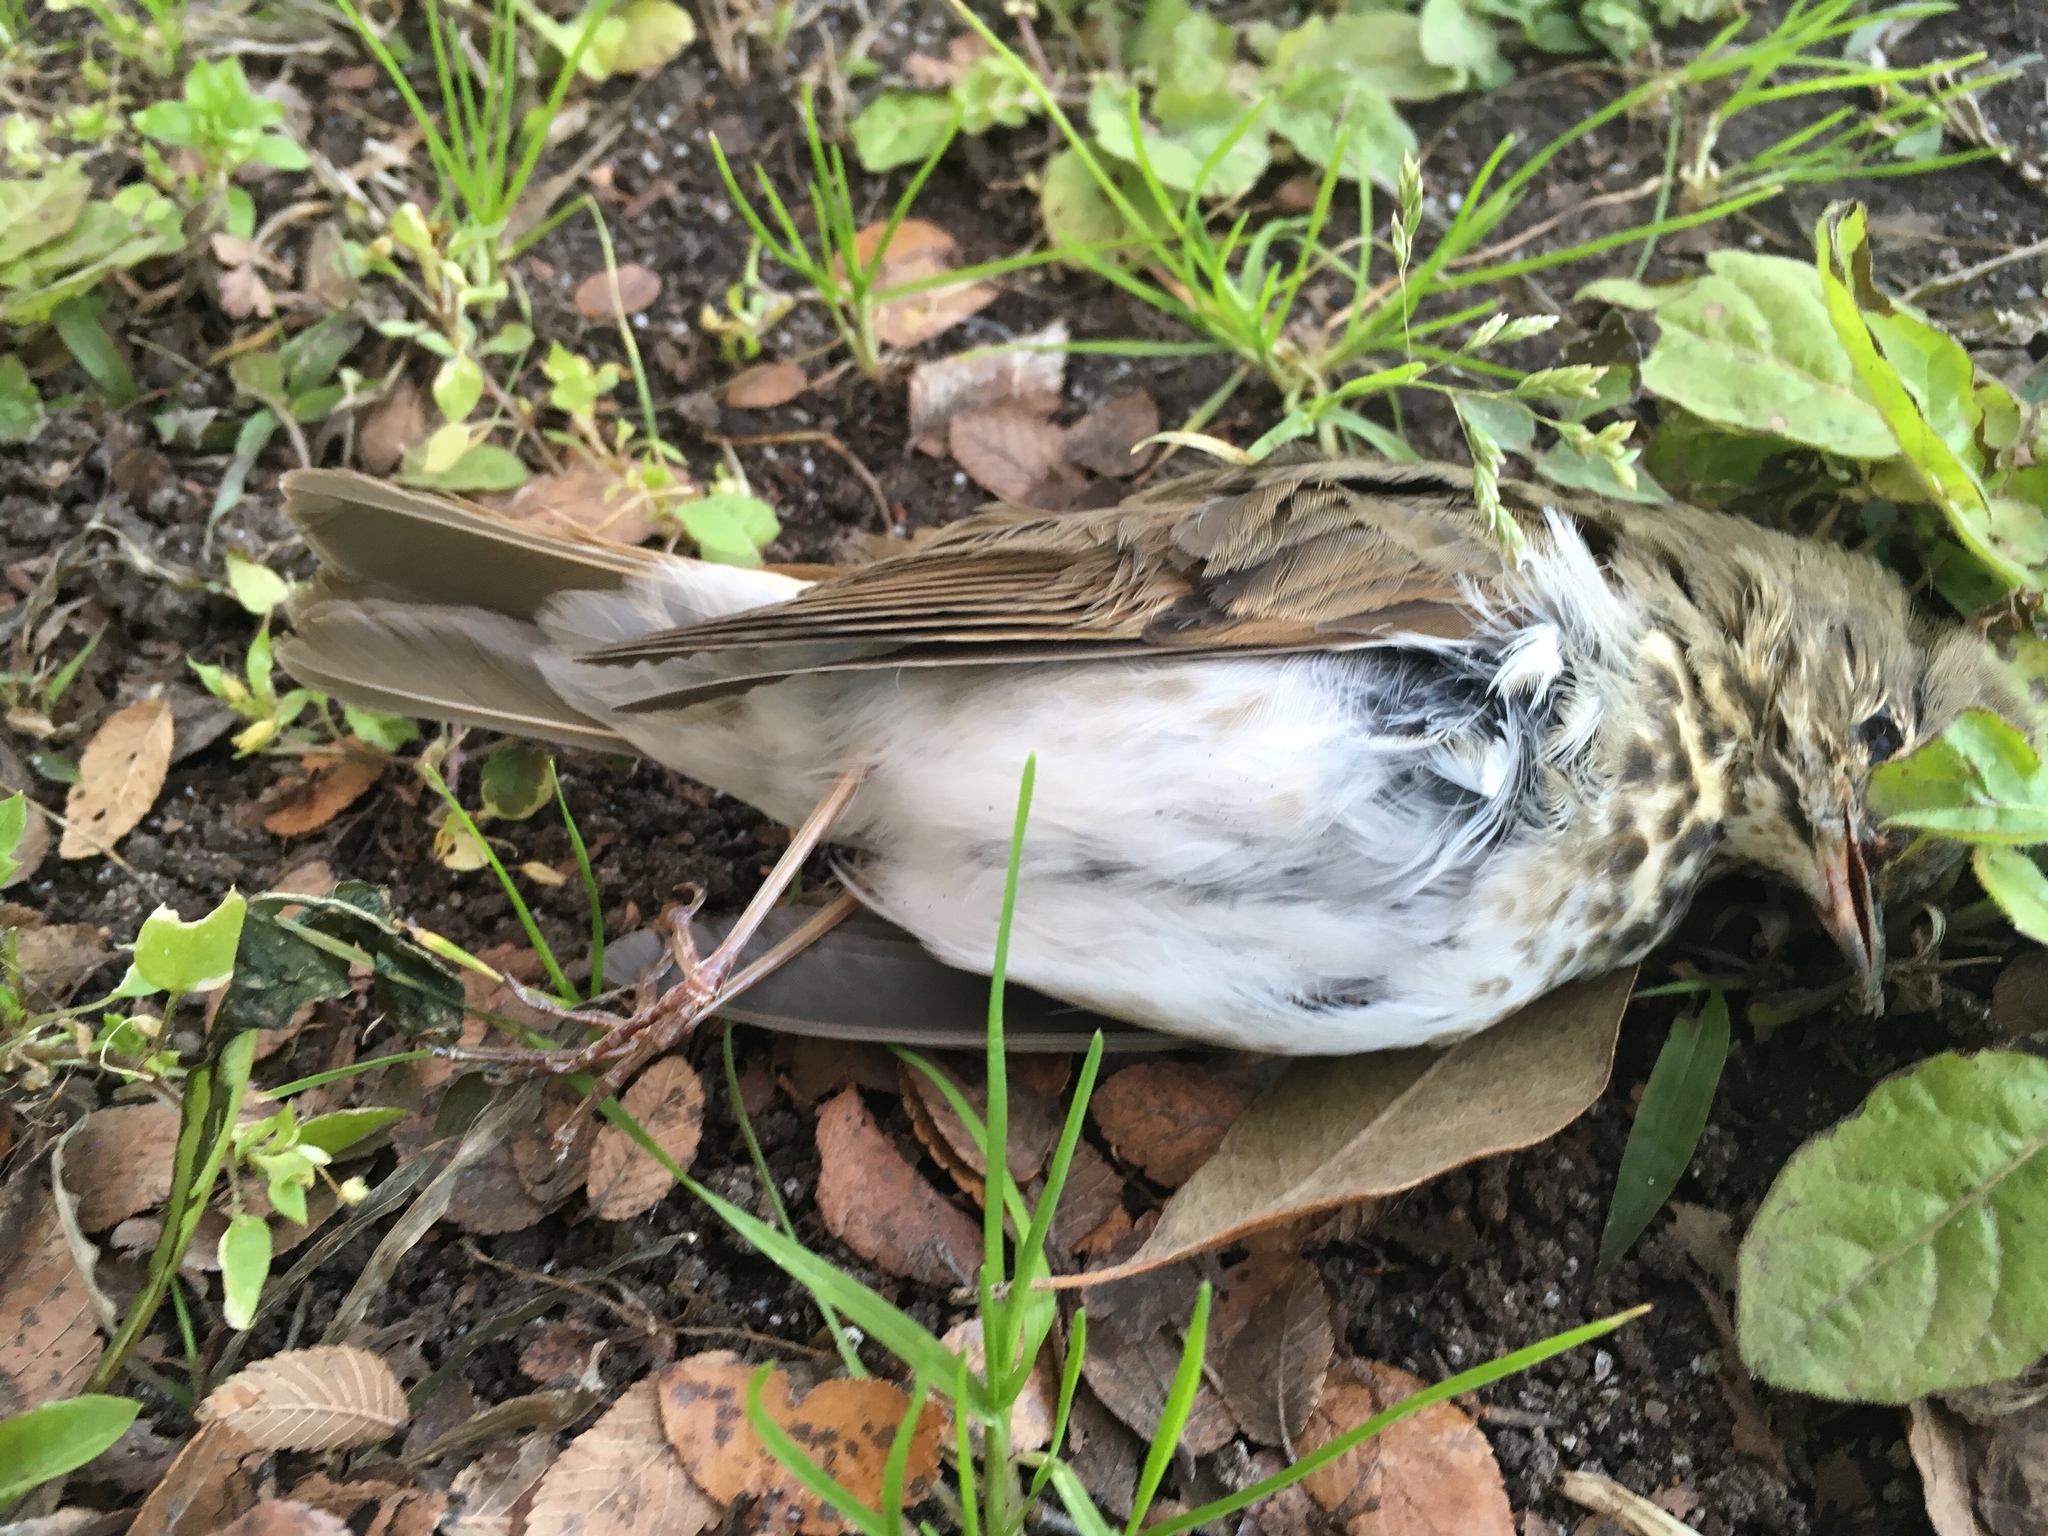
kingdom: Animalia
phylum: Chordata
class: Aves
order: Passeriformes
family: Turdidae
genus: Catharus
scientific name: Catharus guttatus
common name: Hermit thrush
